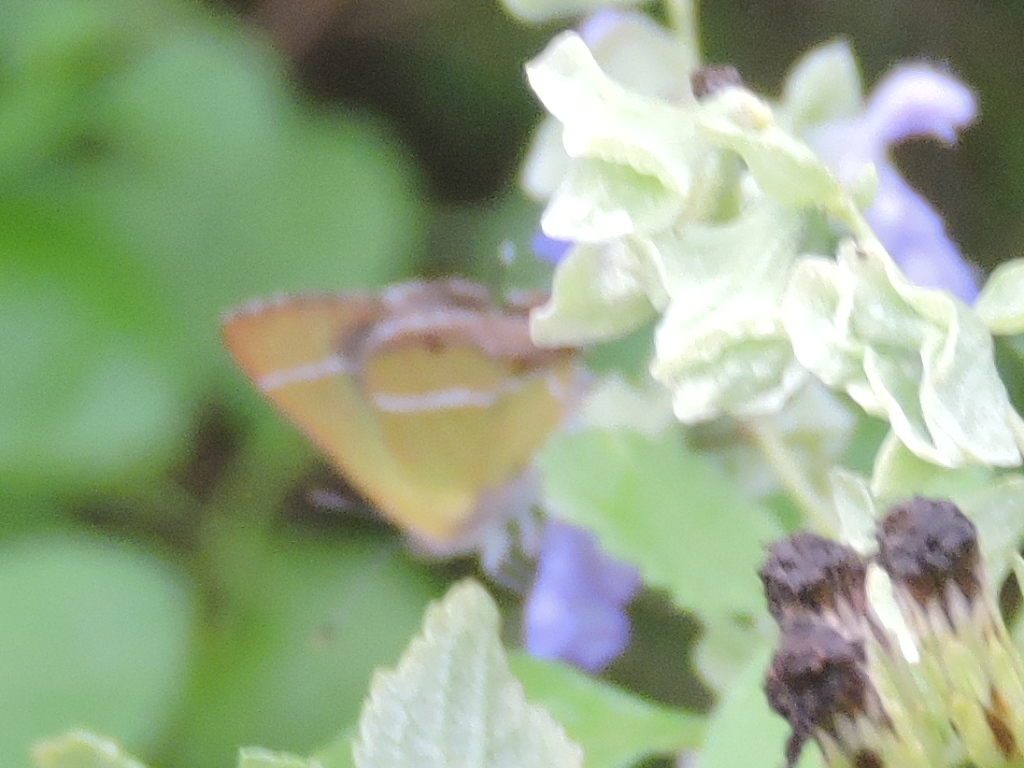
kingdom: Animalia
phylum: Arthropoda
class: Insecta
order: Lepidoptera
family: Lycaenidae
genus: Chlorostrymon
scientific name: Chlorostrymon simaethis
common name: Silver-banded hairstreak
